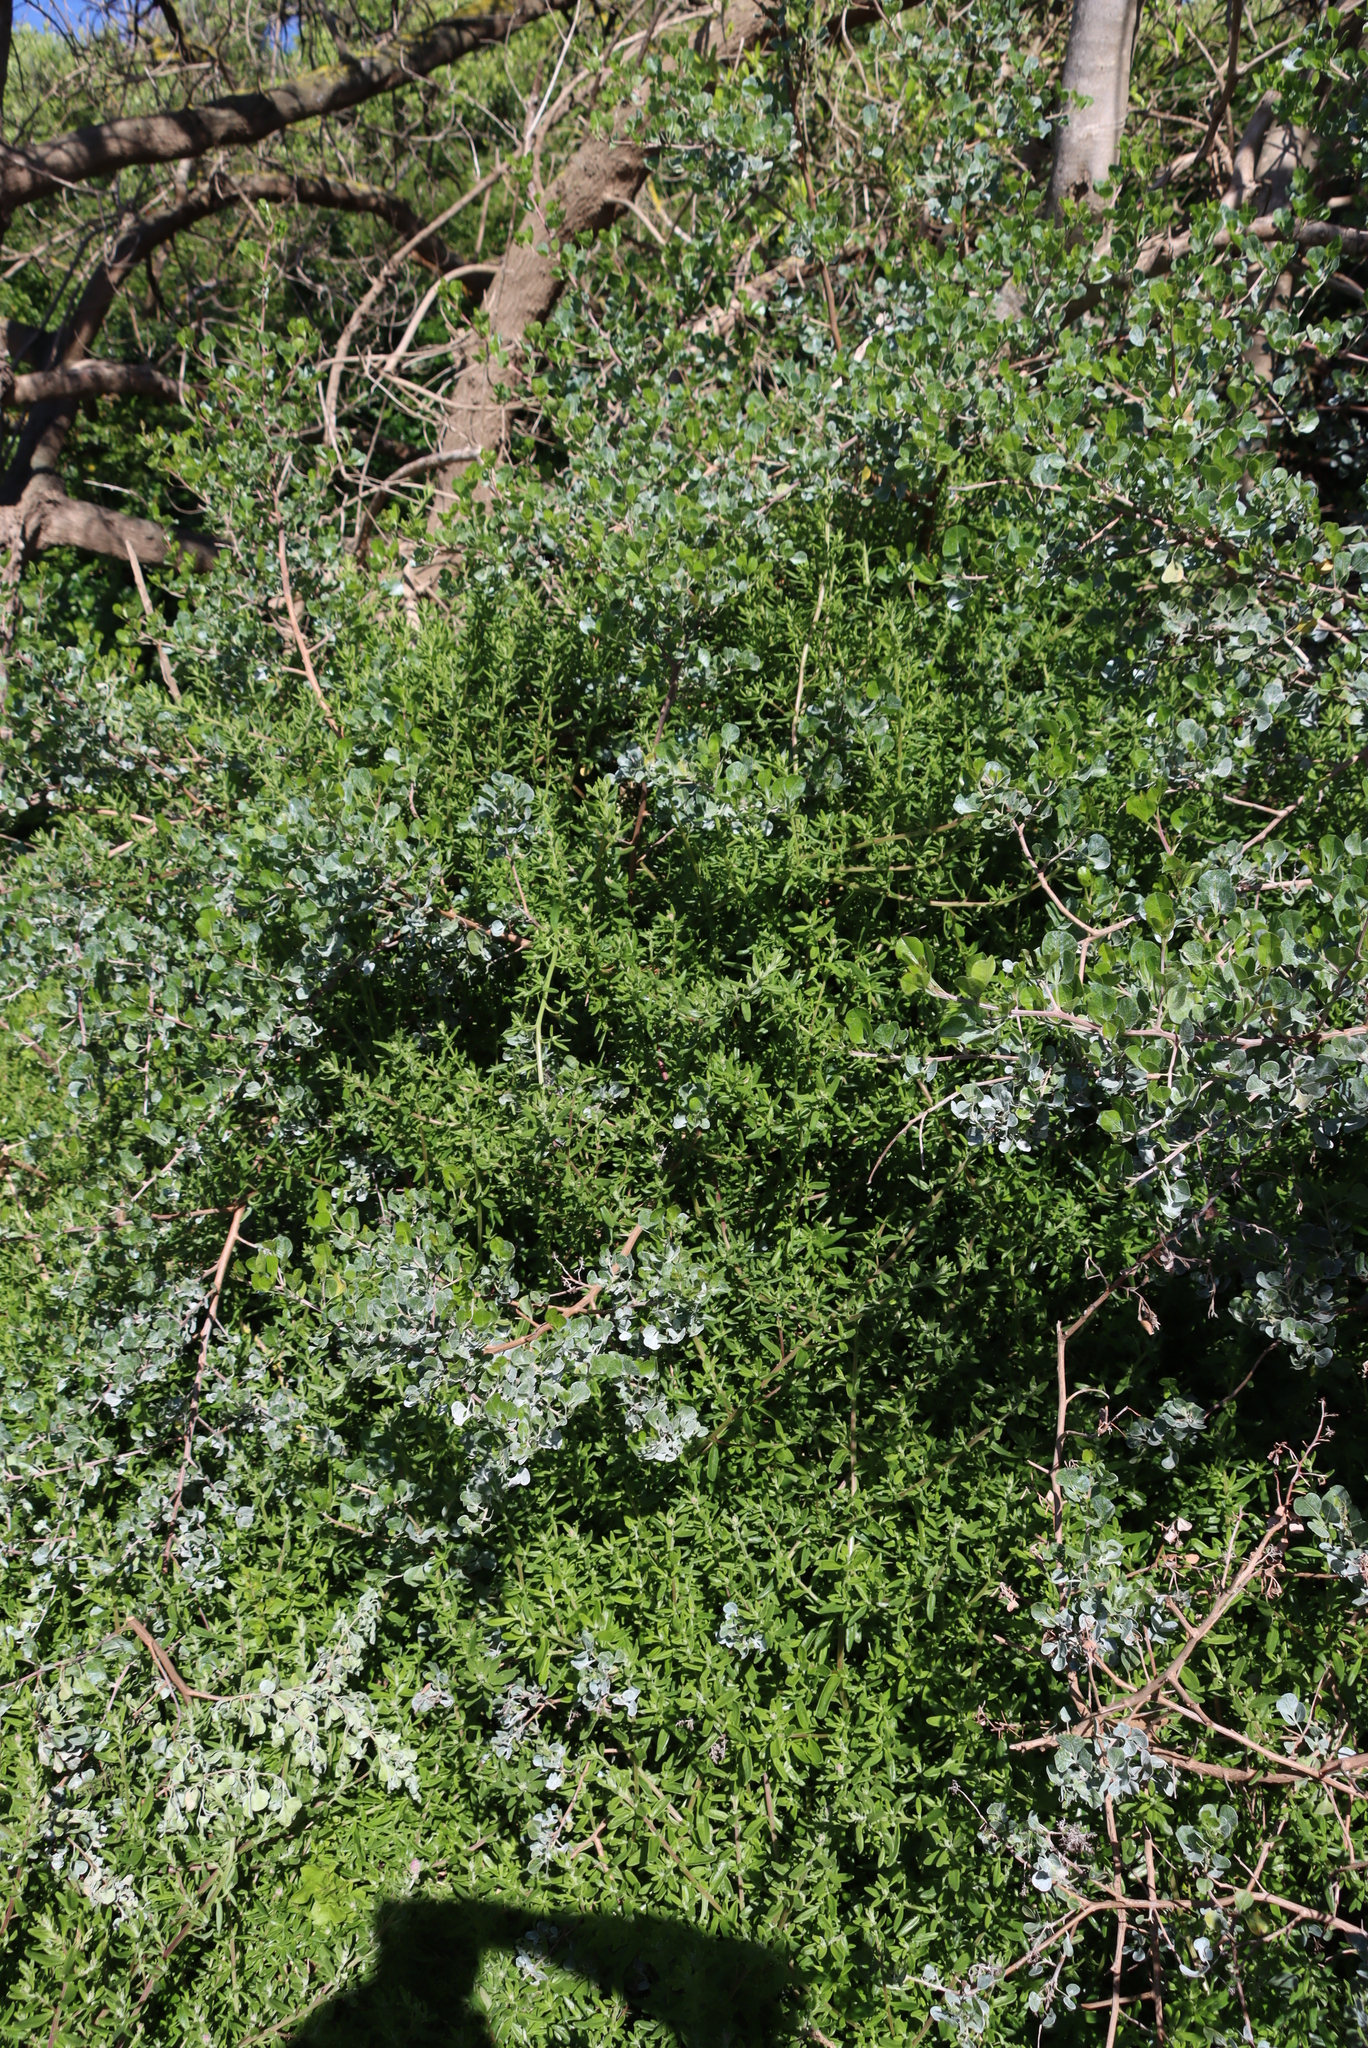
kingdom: Plantae
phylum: Tracheophyta
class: Magnoliopsida
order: Sapindales
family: Anacardiaceae
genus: Searsia
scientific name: Searsia glauca
